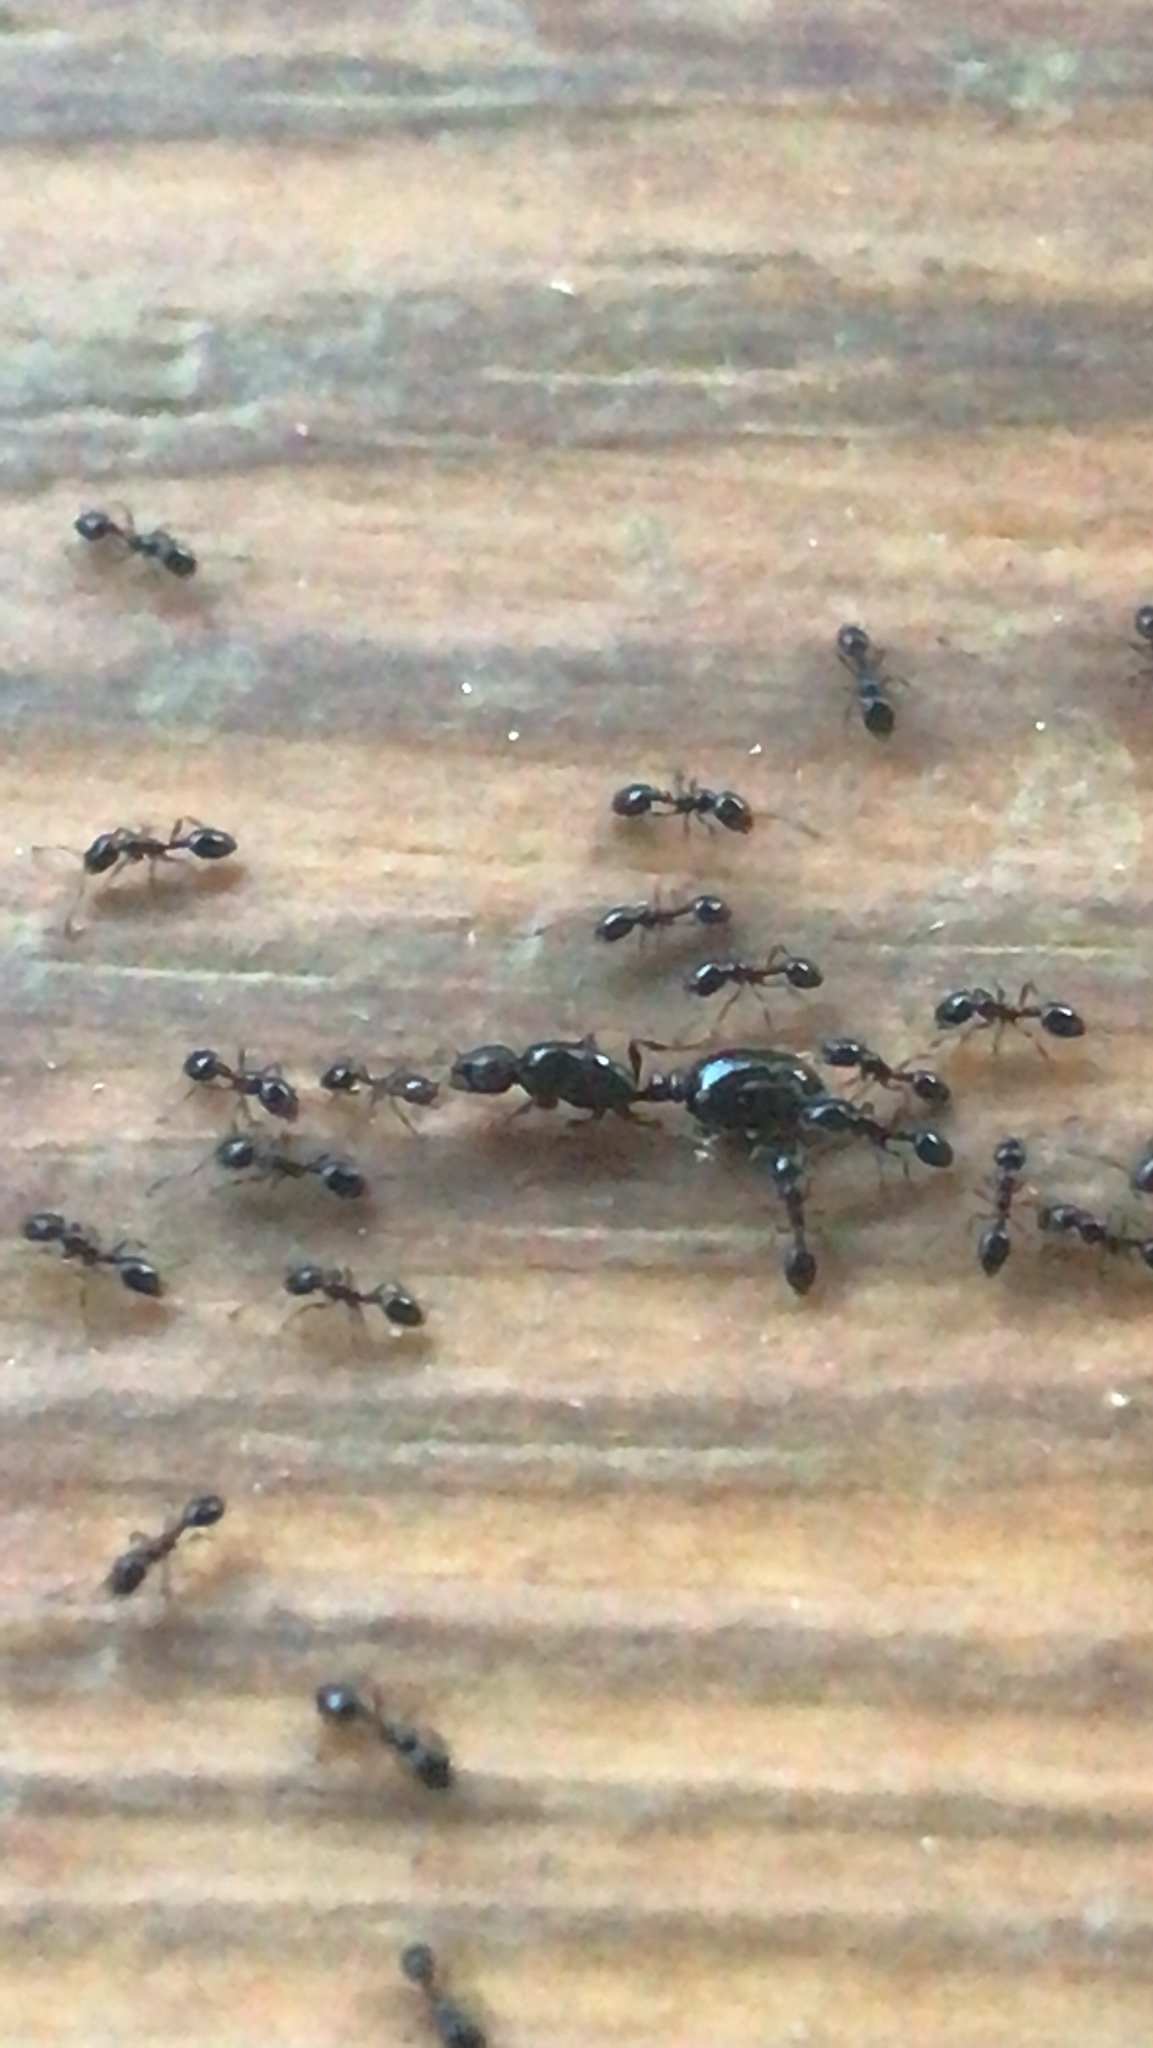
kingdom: Animalia
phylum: Arthropoda
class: Insecta
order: Hymenoptera
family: Formicidae
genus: Monomorium
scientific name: Monomorium minimum
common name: Little black ant
